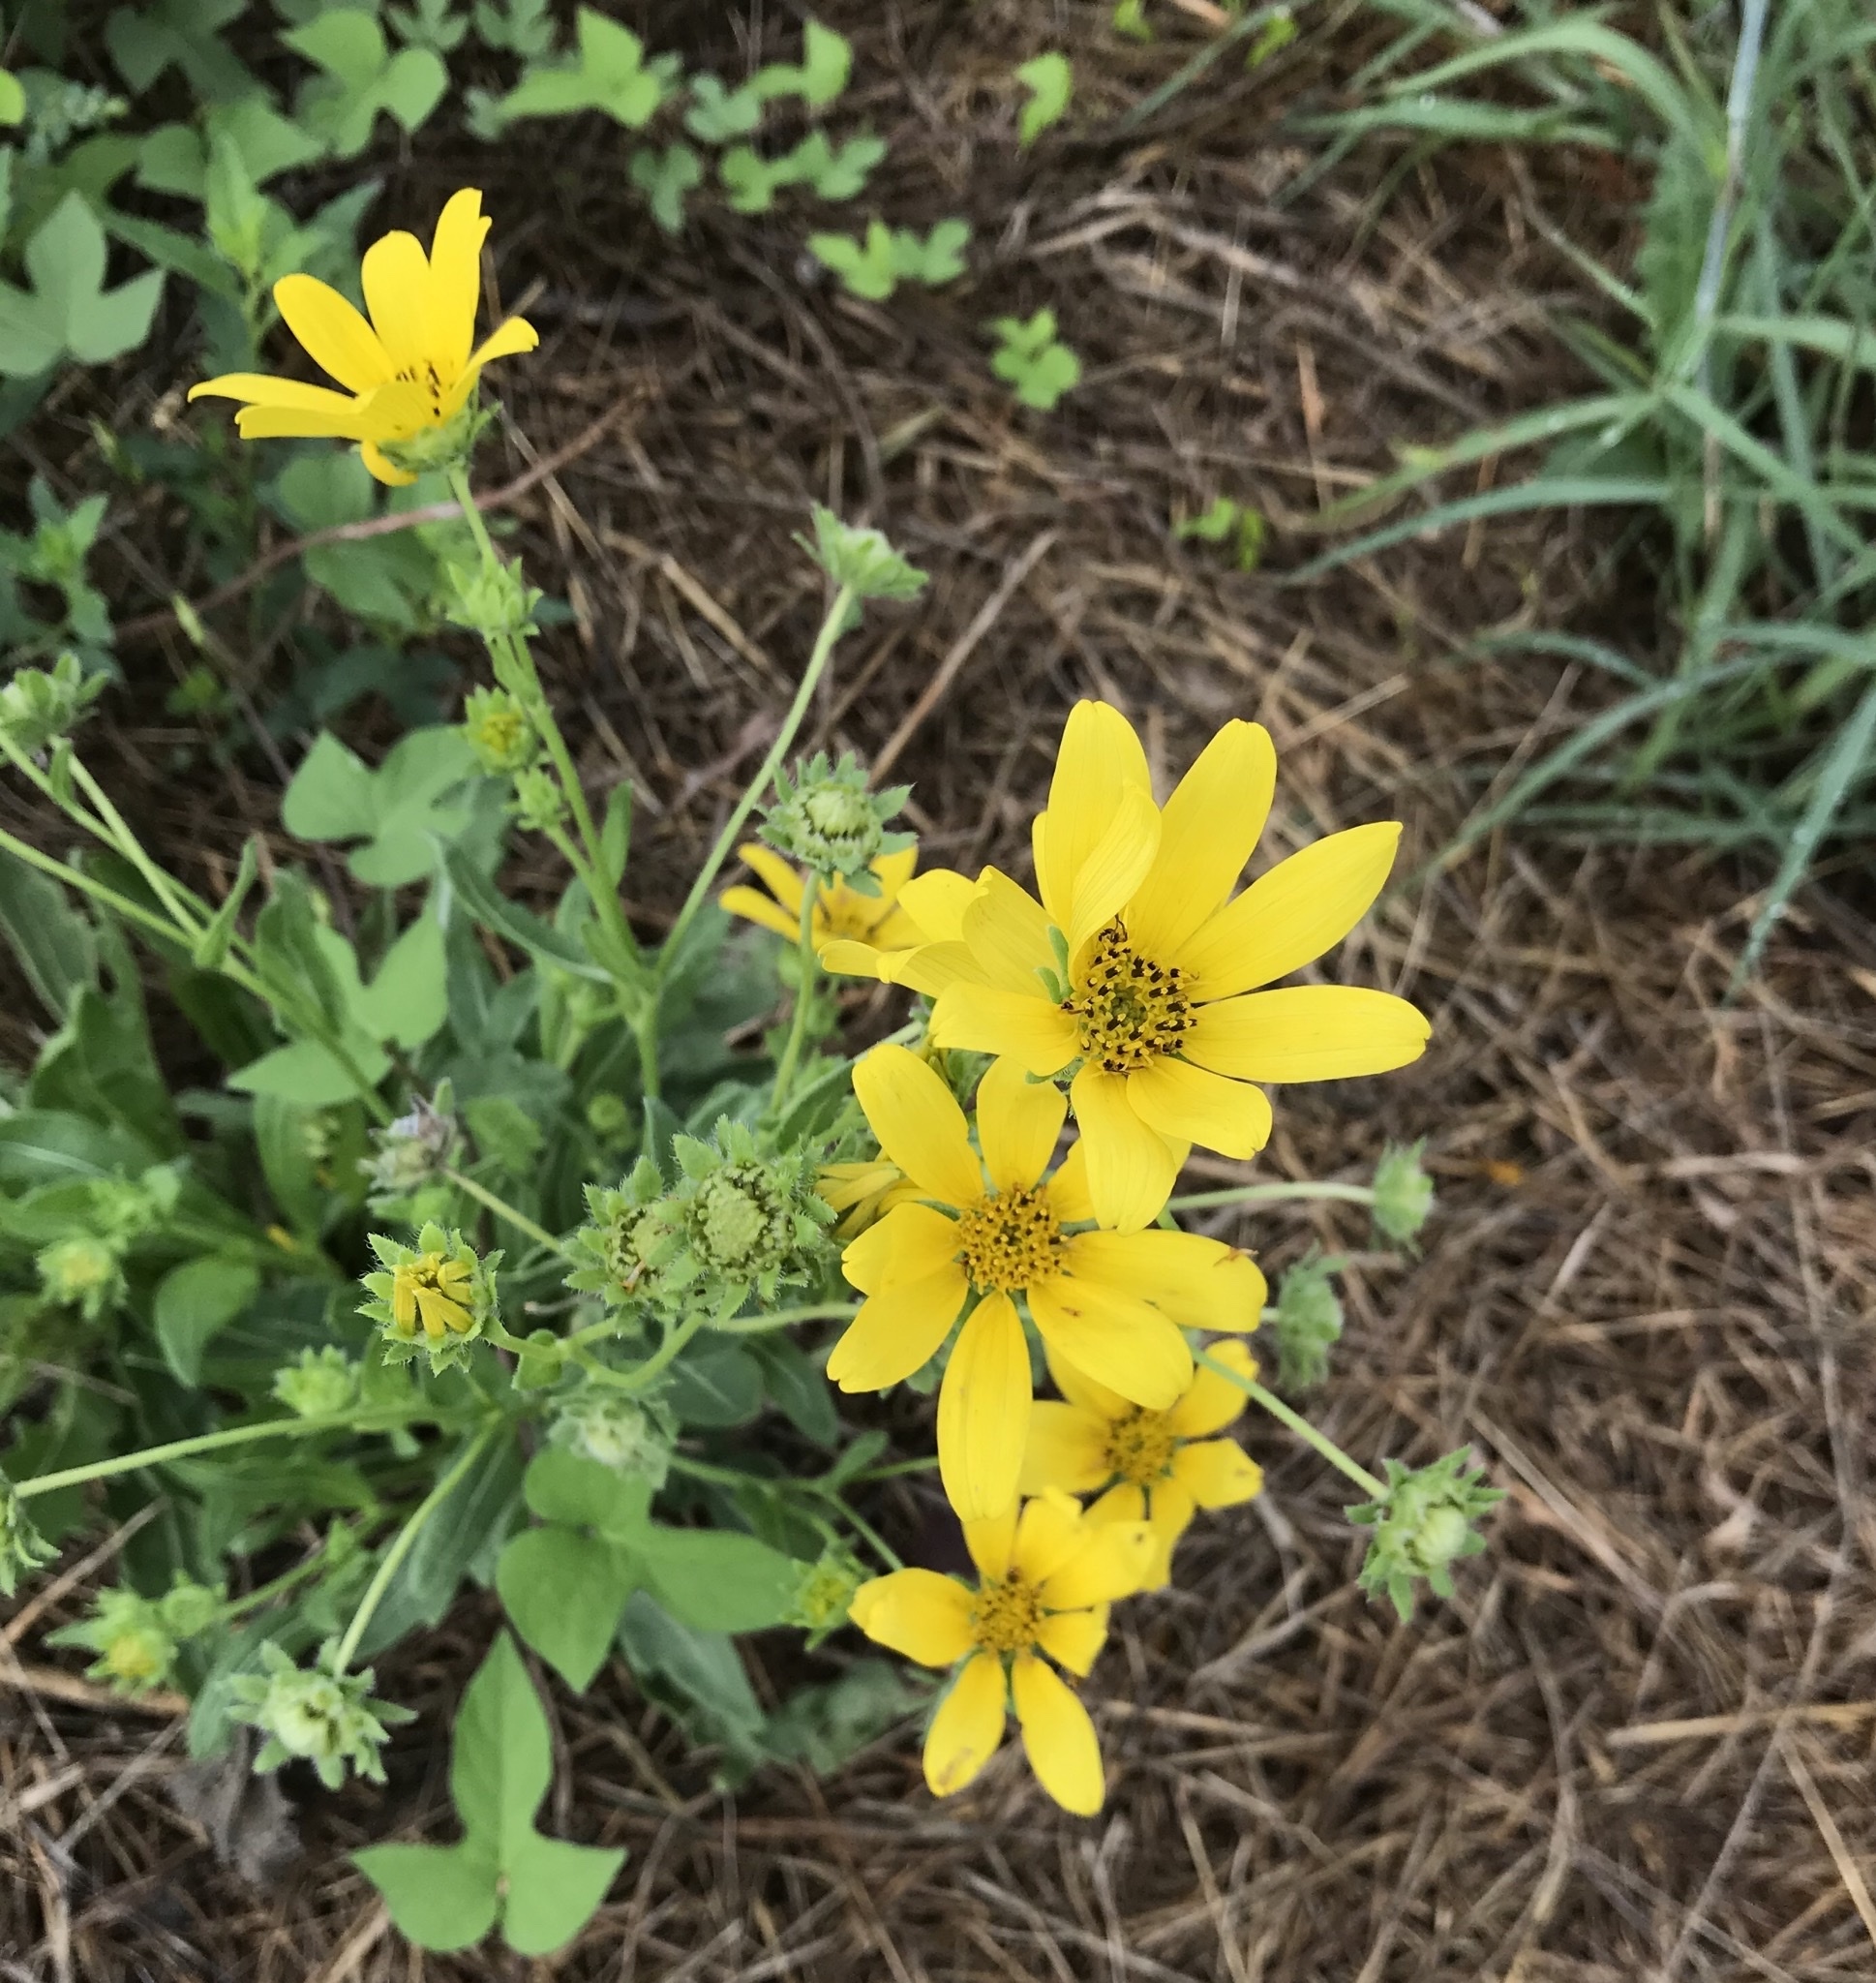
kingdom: Plantae
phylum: Tracheophyta
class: Magnoliopsida
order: Asterales
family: Asteraceae
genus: Engelmannia
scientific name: Engelmannia peristenia
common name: Engelmann's daisy
